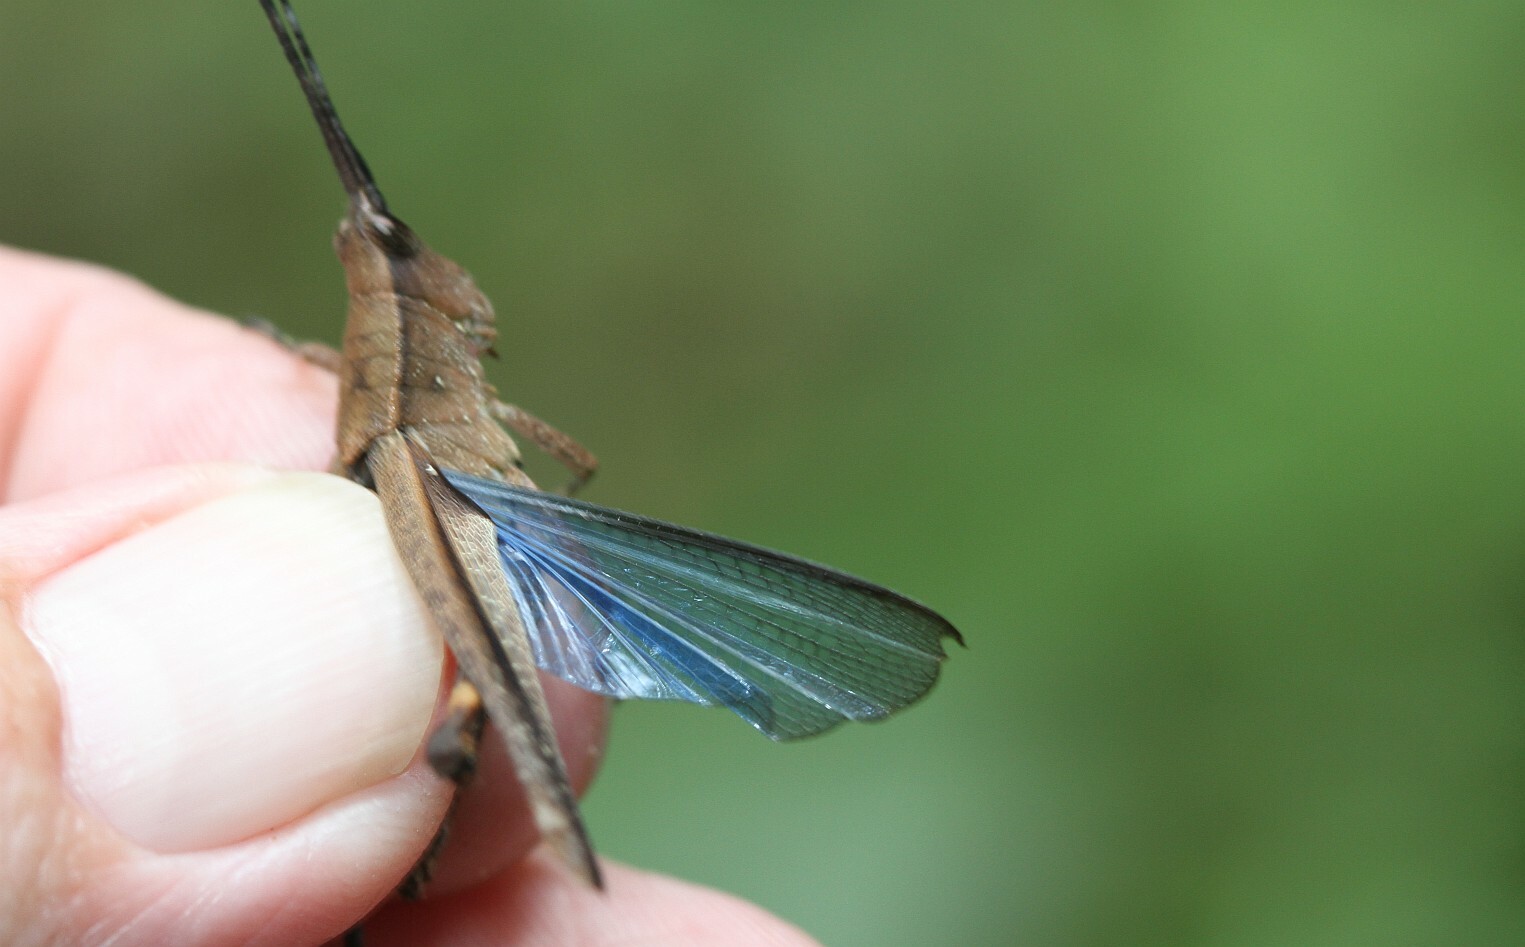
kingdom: Animalia
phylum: Arthropoda
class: Insecta
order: Orthoptera
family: Acrididae
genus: Xiphiola
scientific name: Xiphiola cyanoptera
